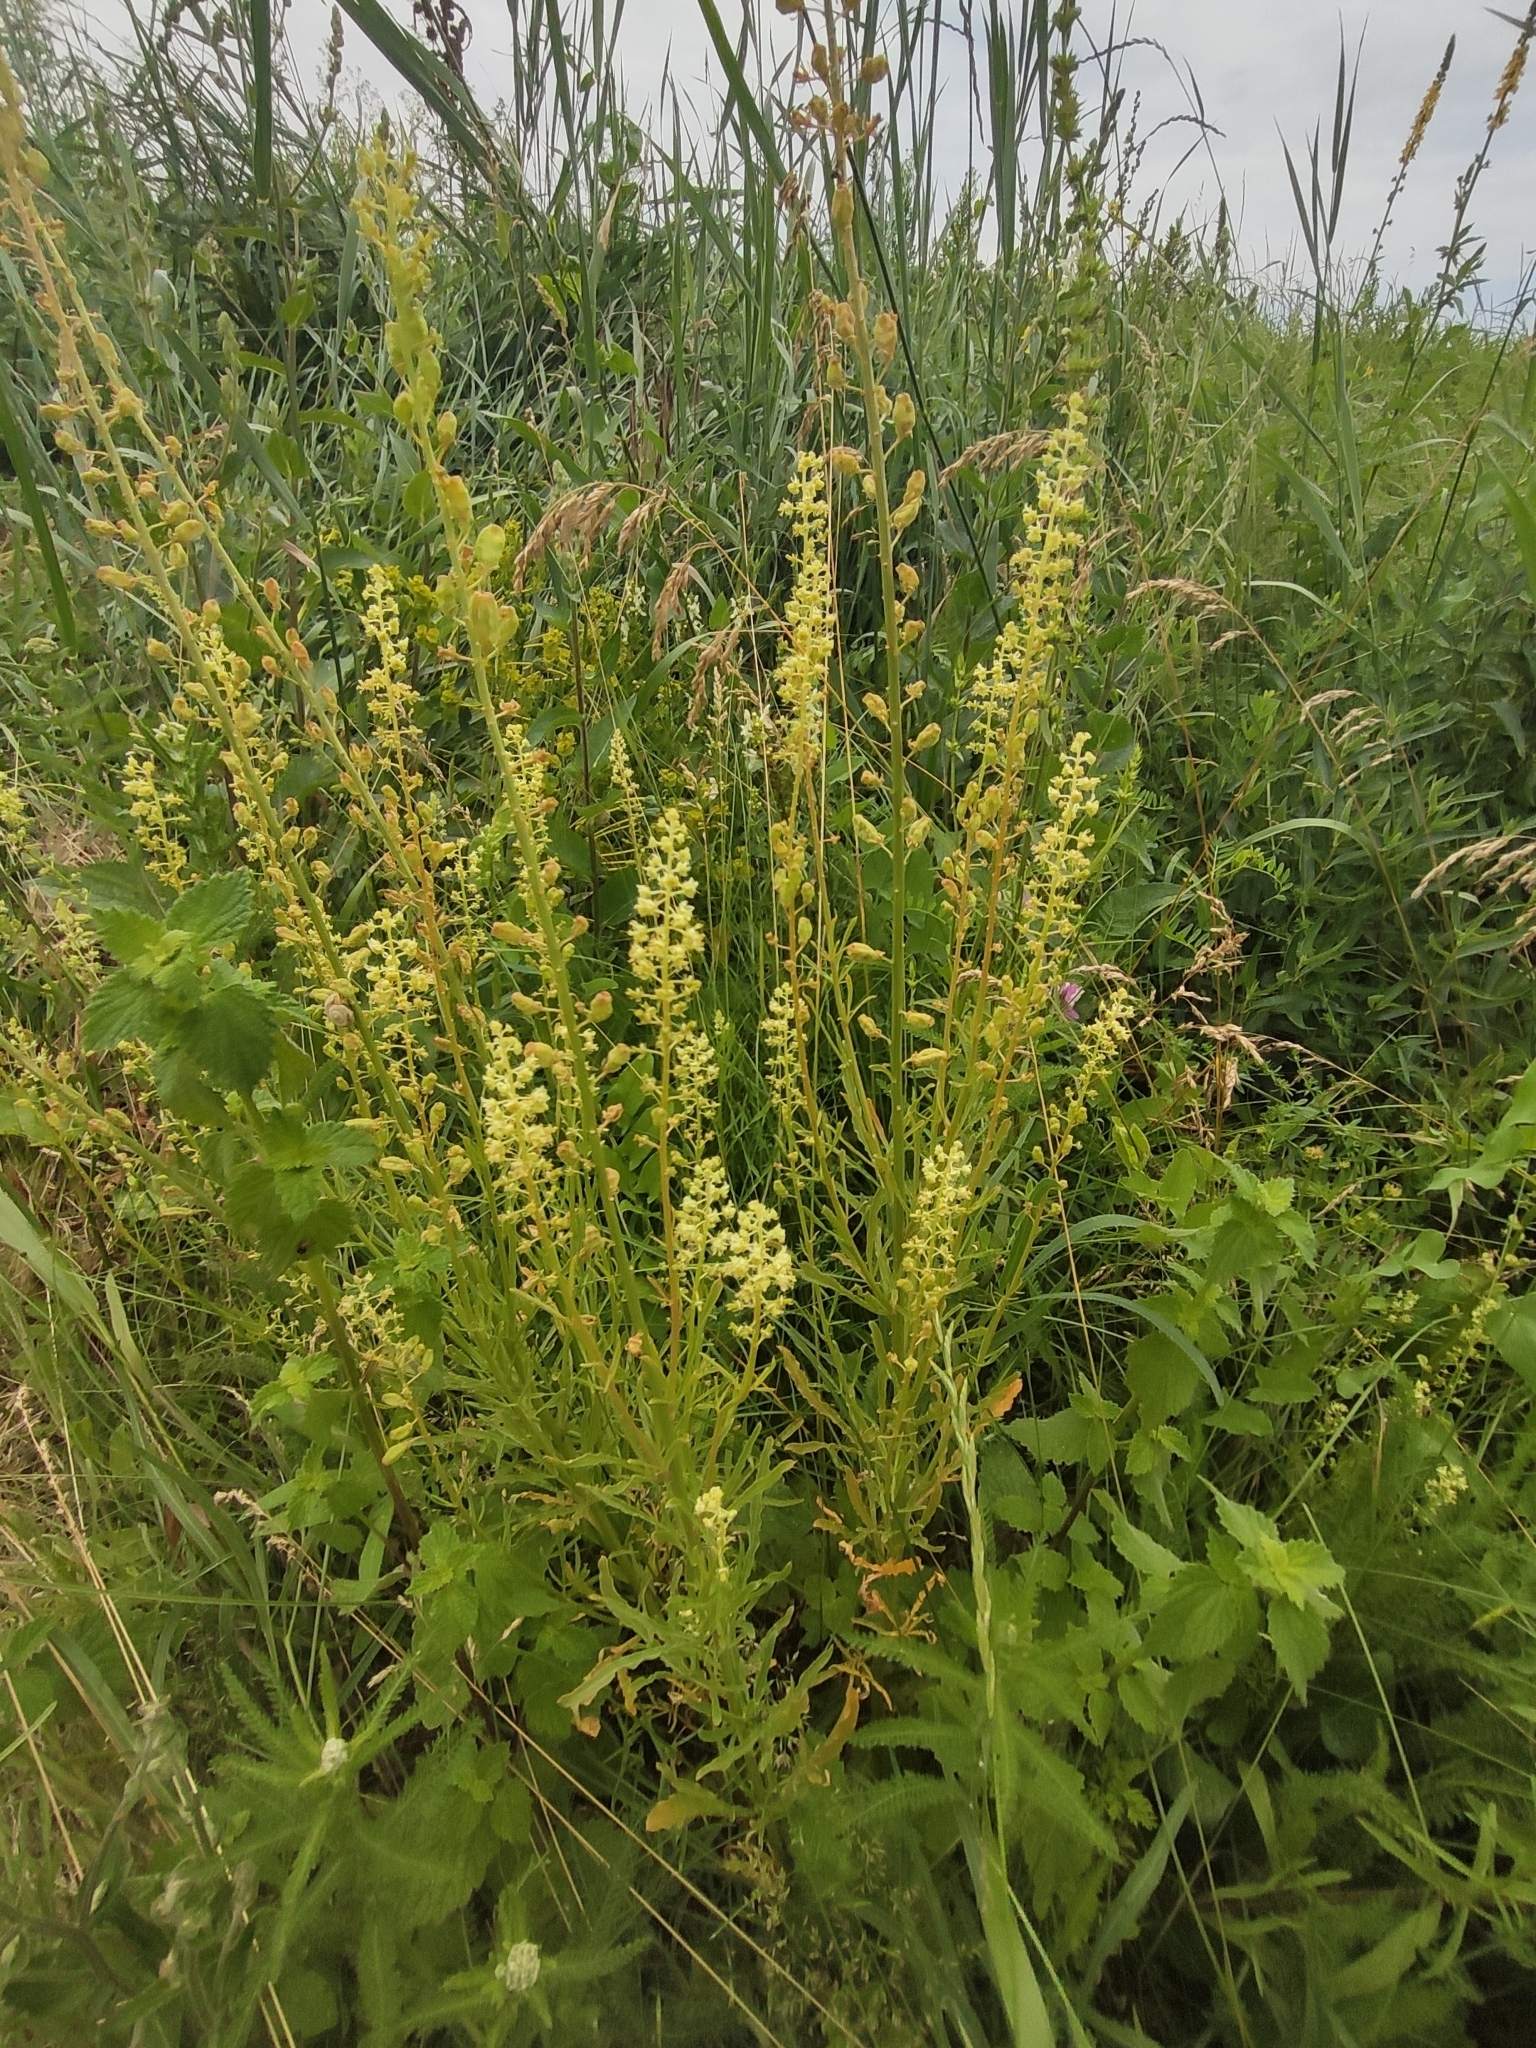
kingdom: Plantae
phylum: Tracheophyta
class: Magnoliopsida
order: Brassicales
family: Resedaceae
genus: Reseda
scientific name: Reseda lutea
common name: Wild mignonette
